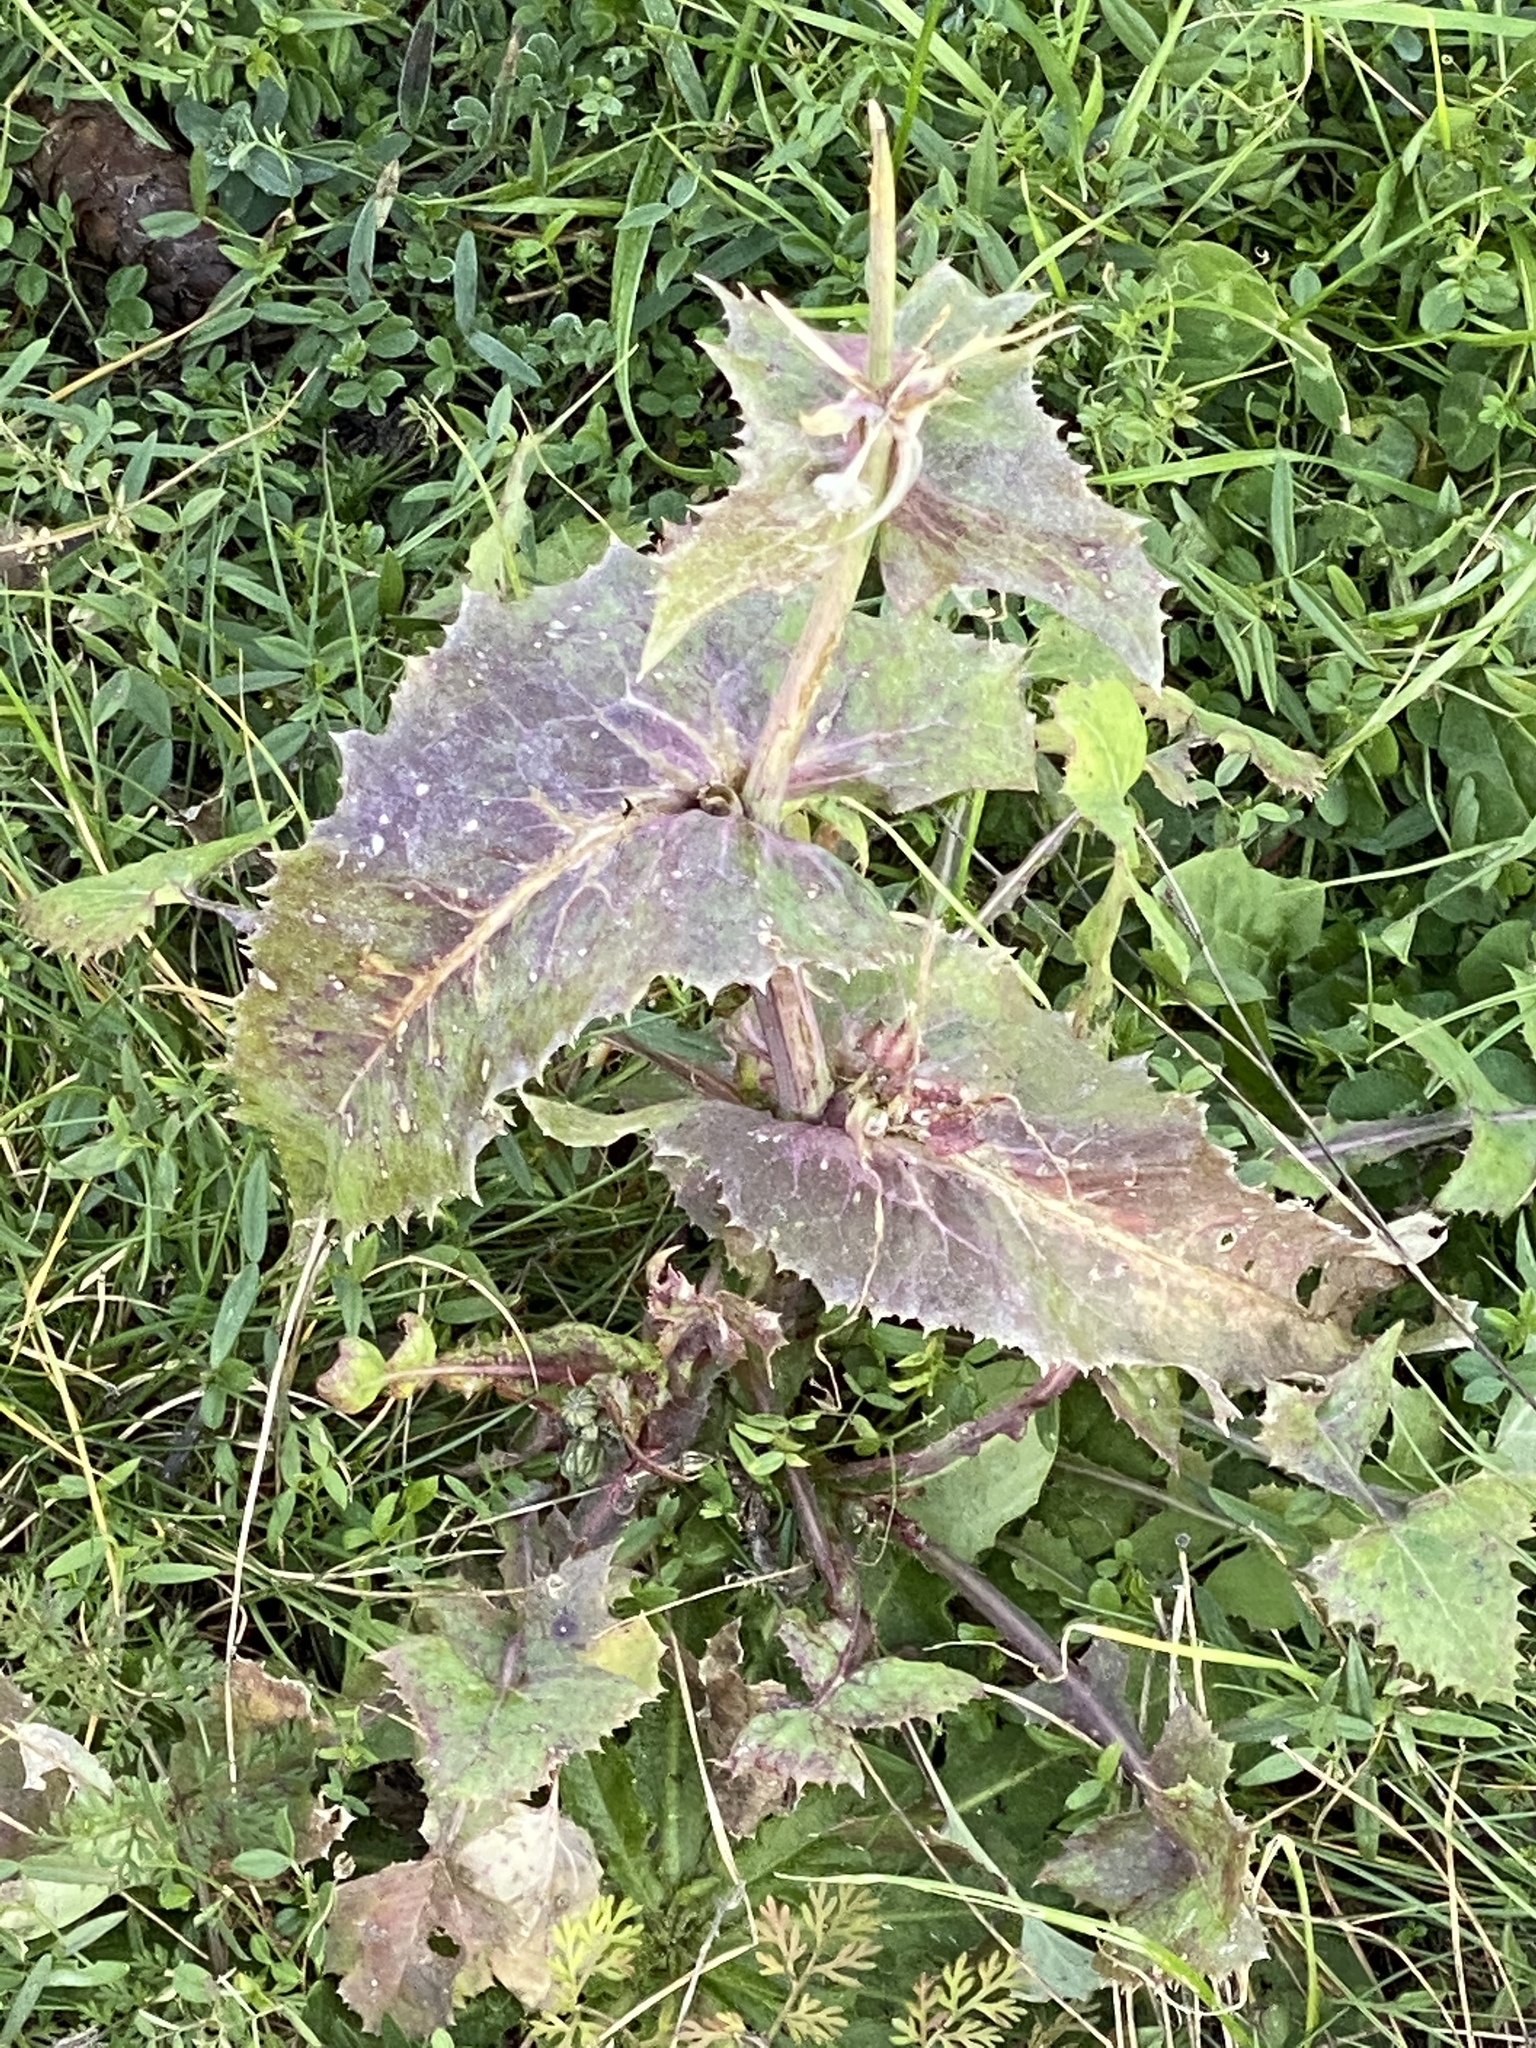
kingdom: Plantae
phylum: Tracheophyta
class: Magnoliopsida
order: Asterales
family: Asteraceae
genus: Sonchus
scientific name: Sonchus oleraceus
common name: Common sowthistle
